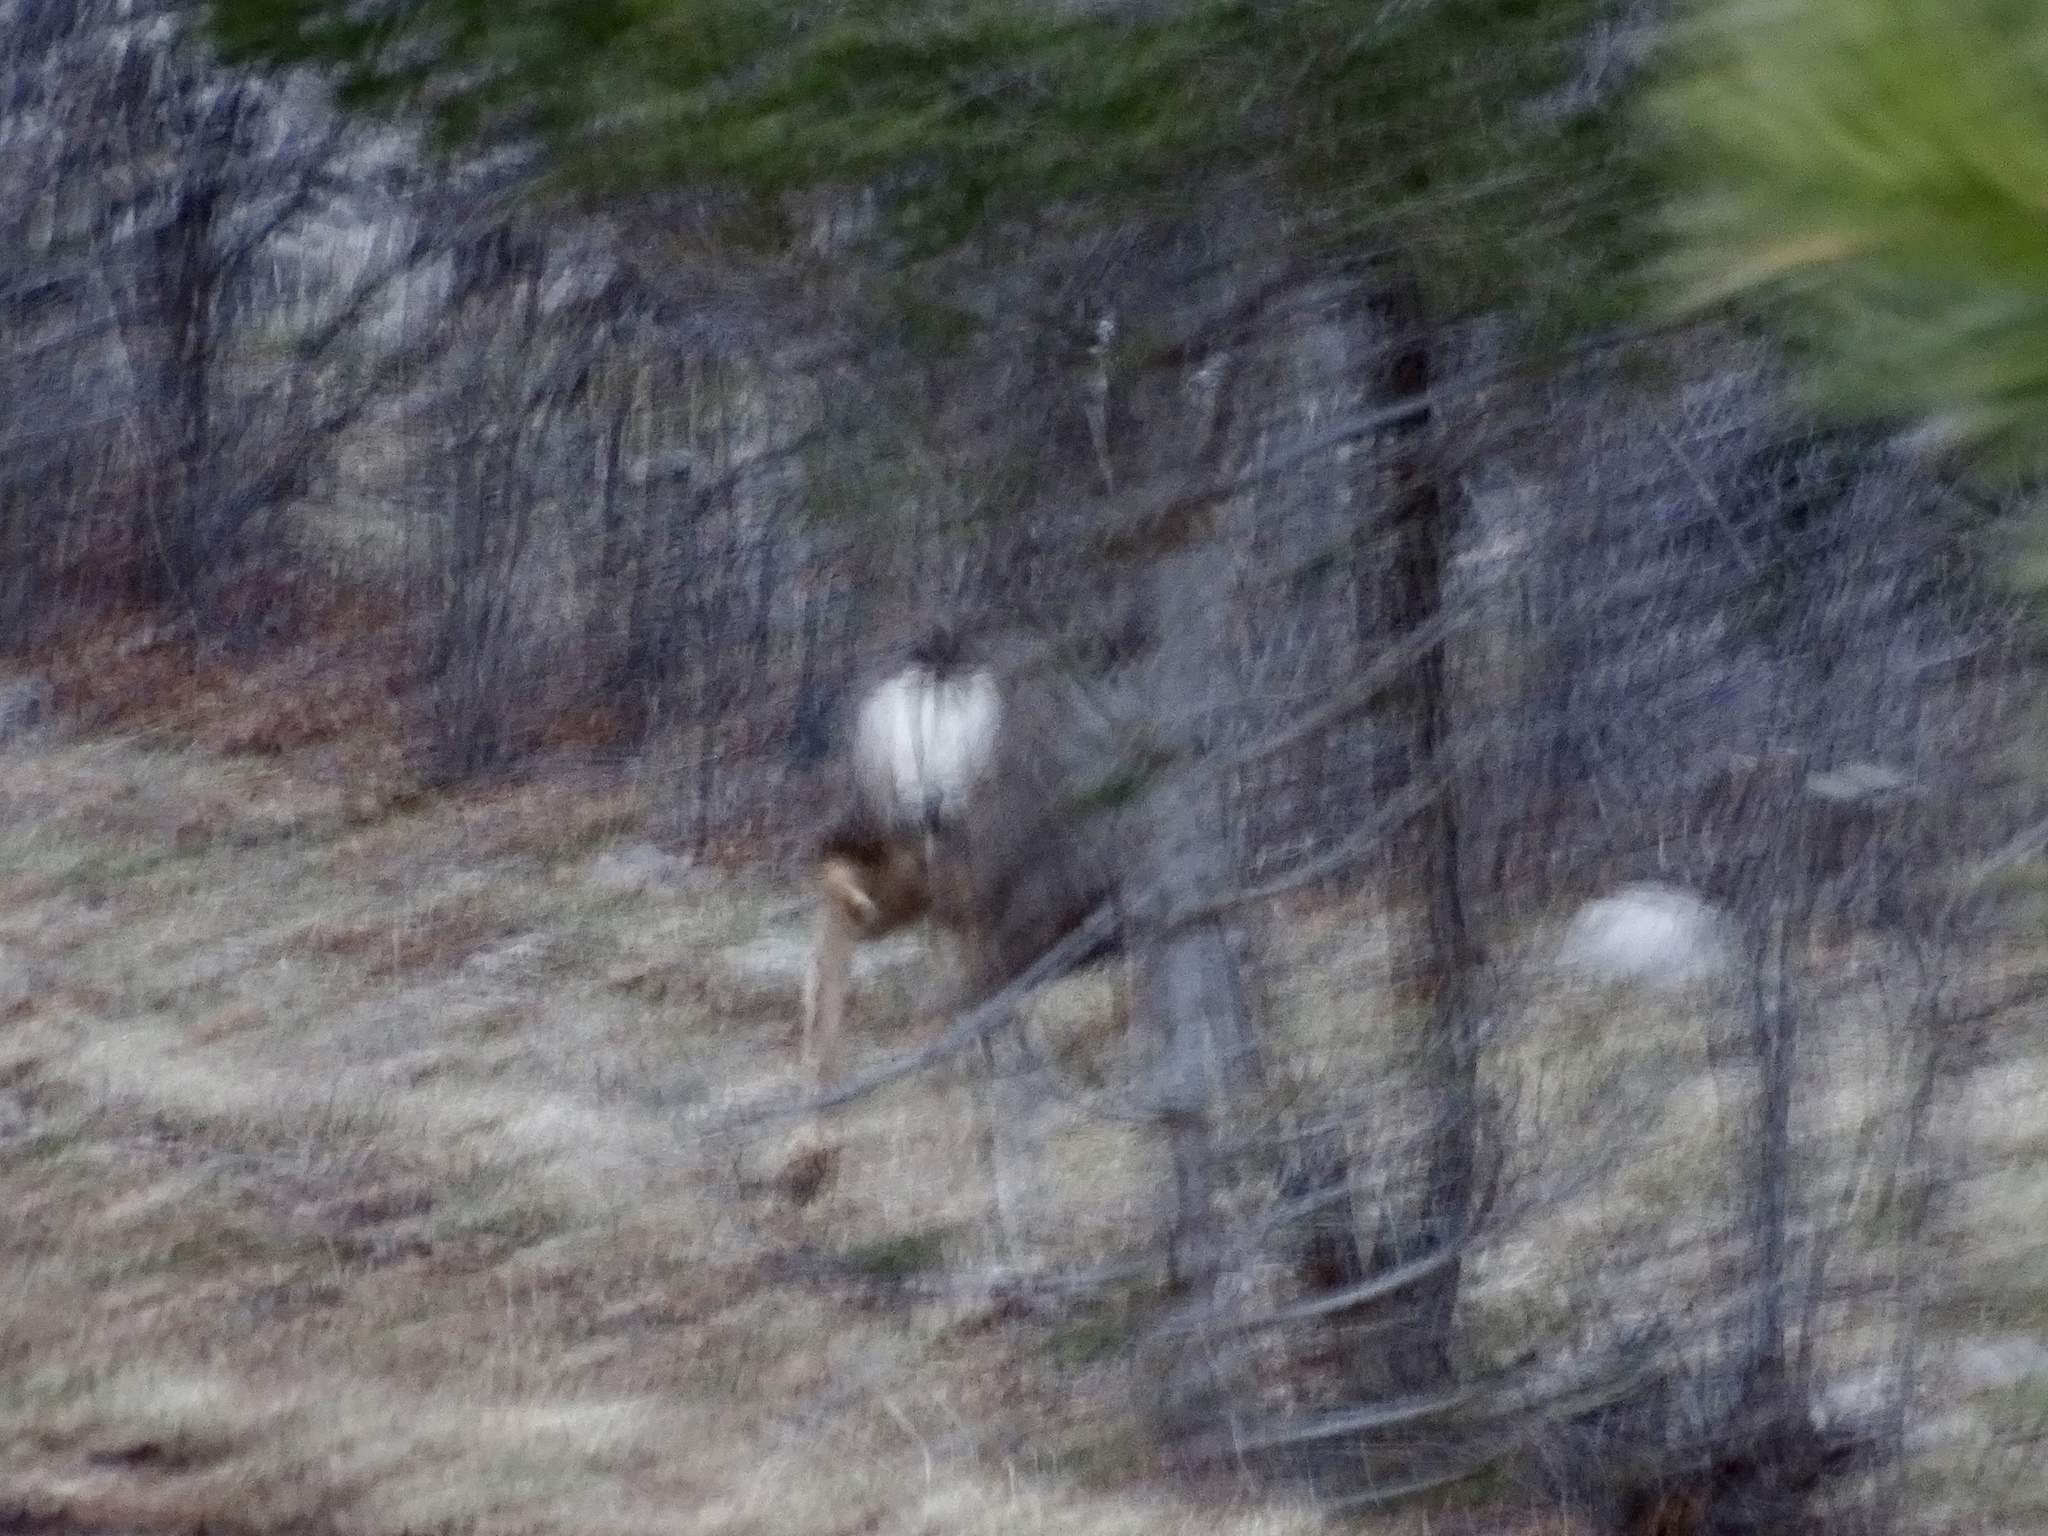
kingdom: Animalia
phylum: Chordata
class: Mammalia
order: Artiodactyla
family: Cervidae
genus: Odocoileus
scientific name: Odocoileus hemionus
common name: Mule deer
